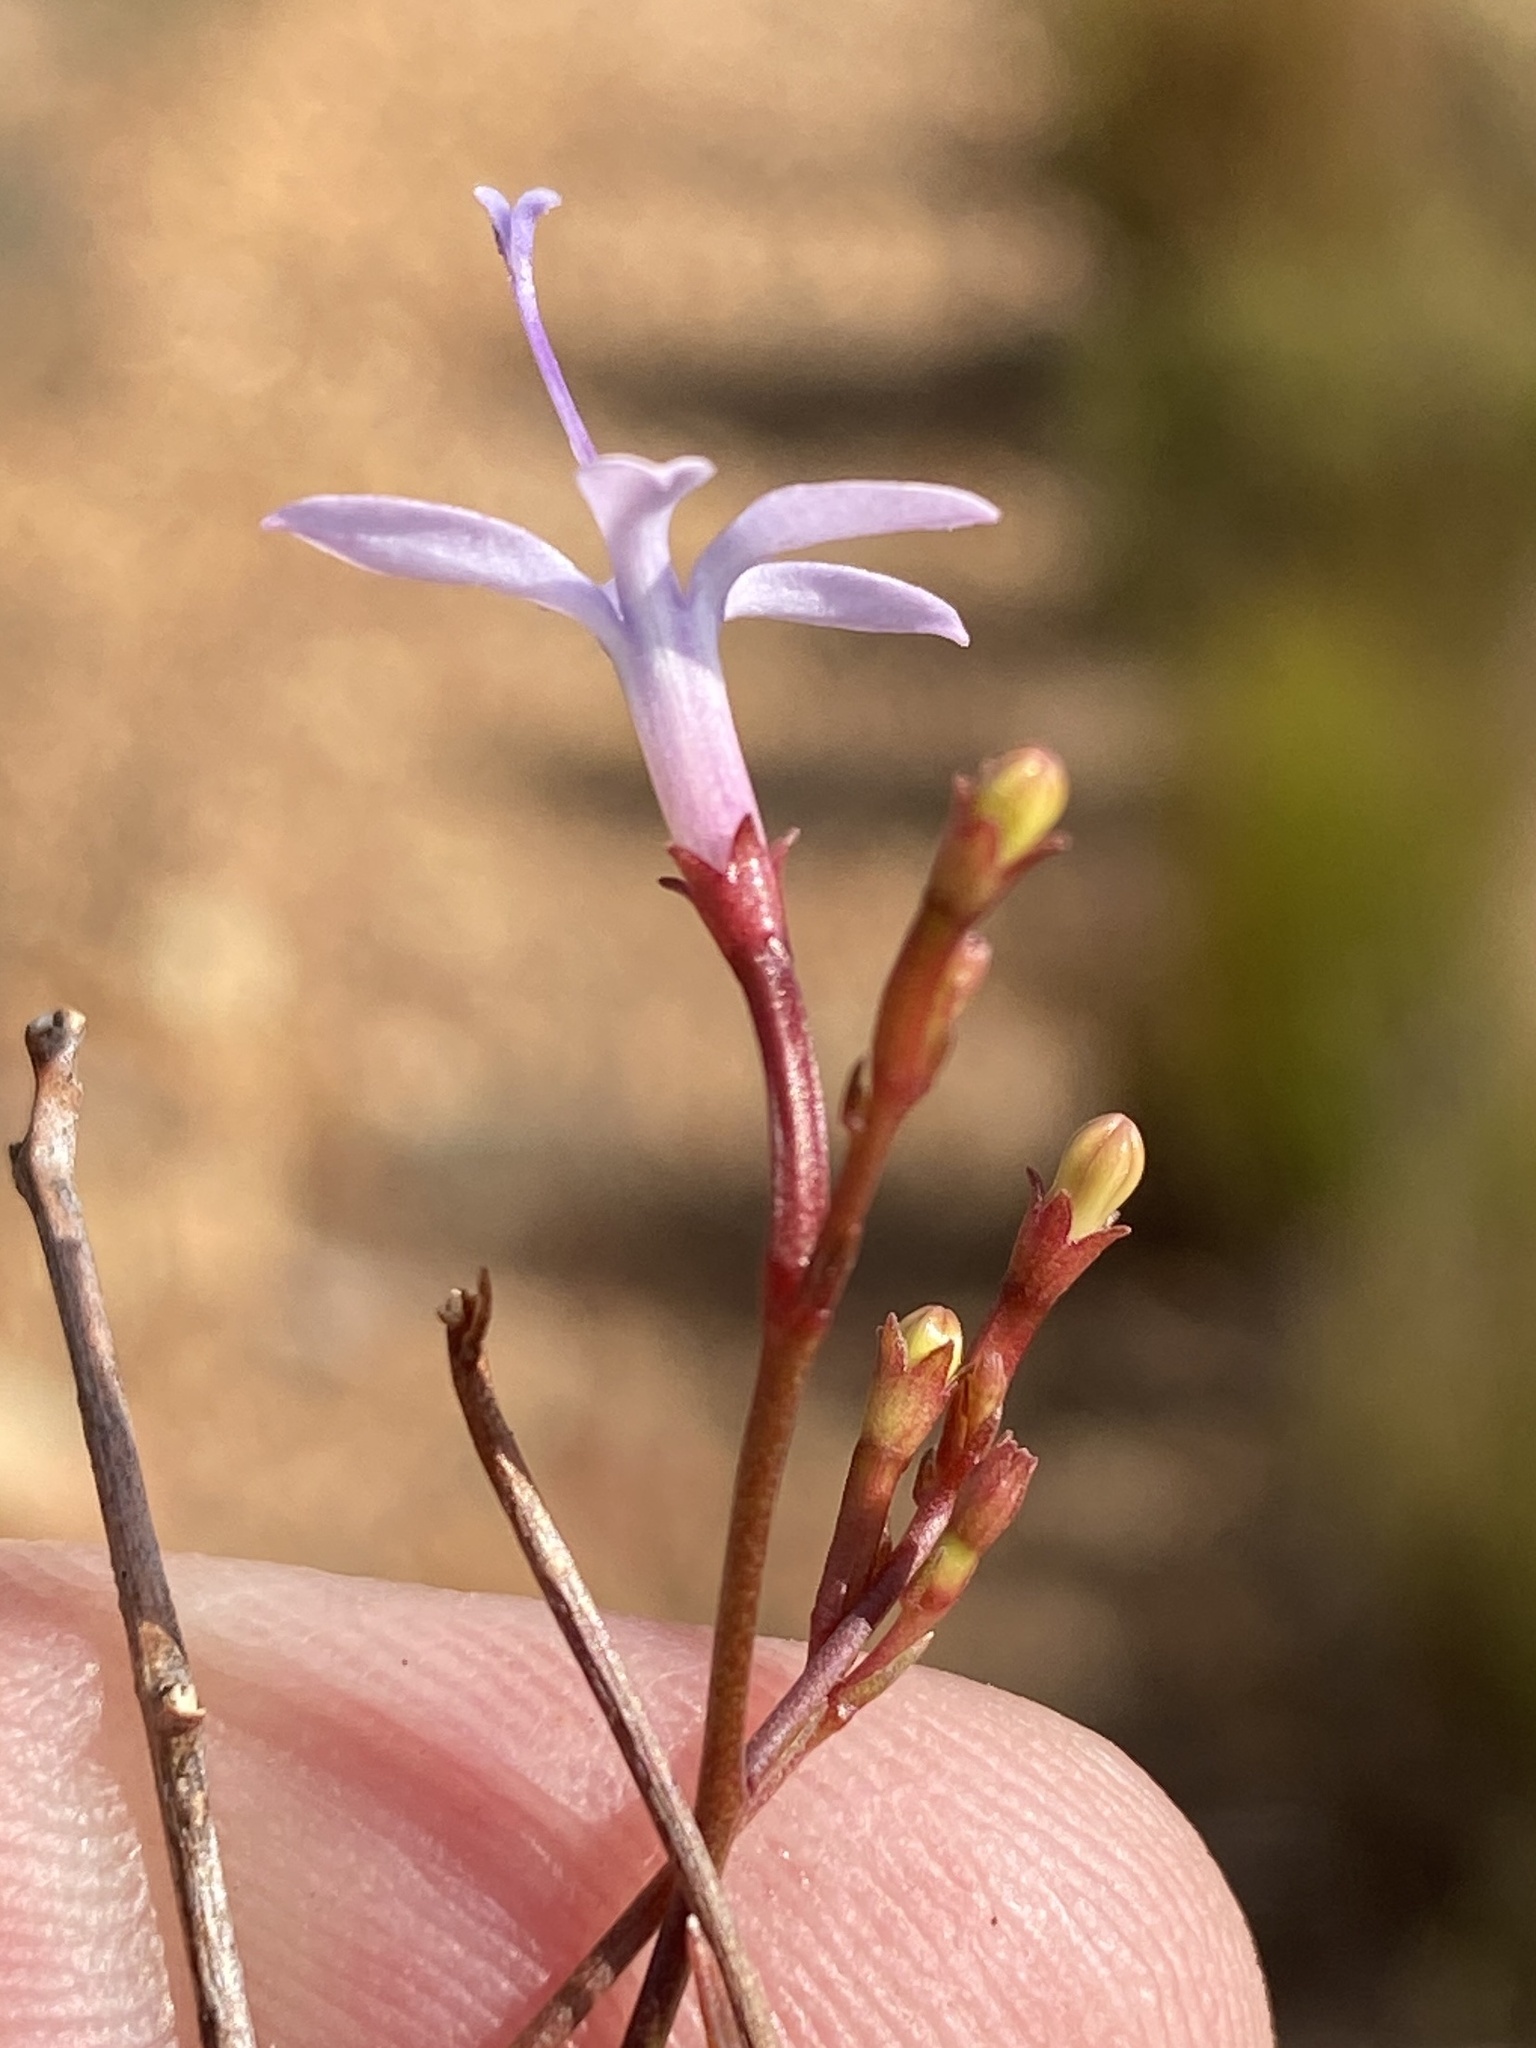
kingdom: Plantae
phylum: Tracheophyta
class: Magnoliopsida
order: Asterales
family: Campanulaceae
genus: Prismatocarpus
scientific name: Prismatocarpus diffusus
